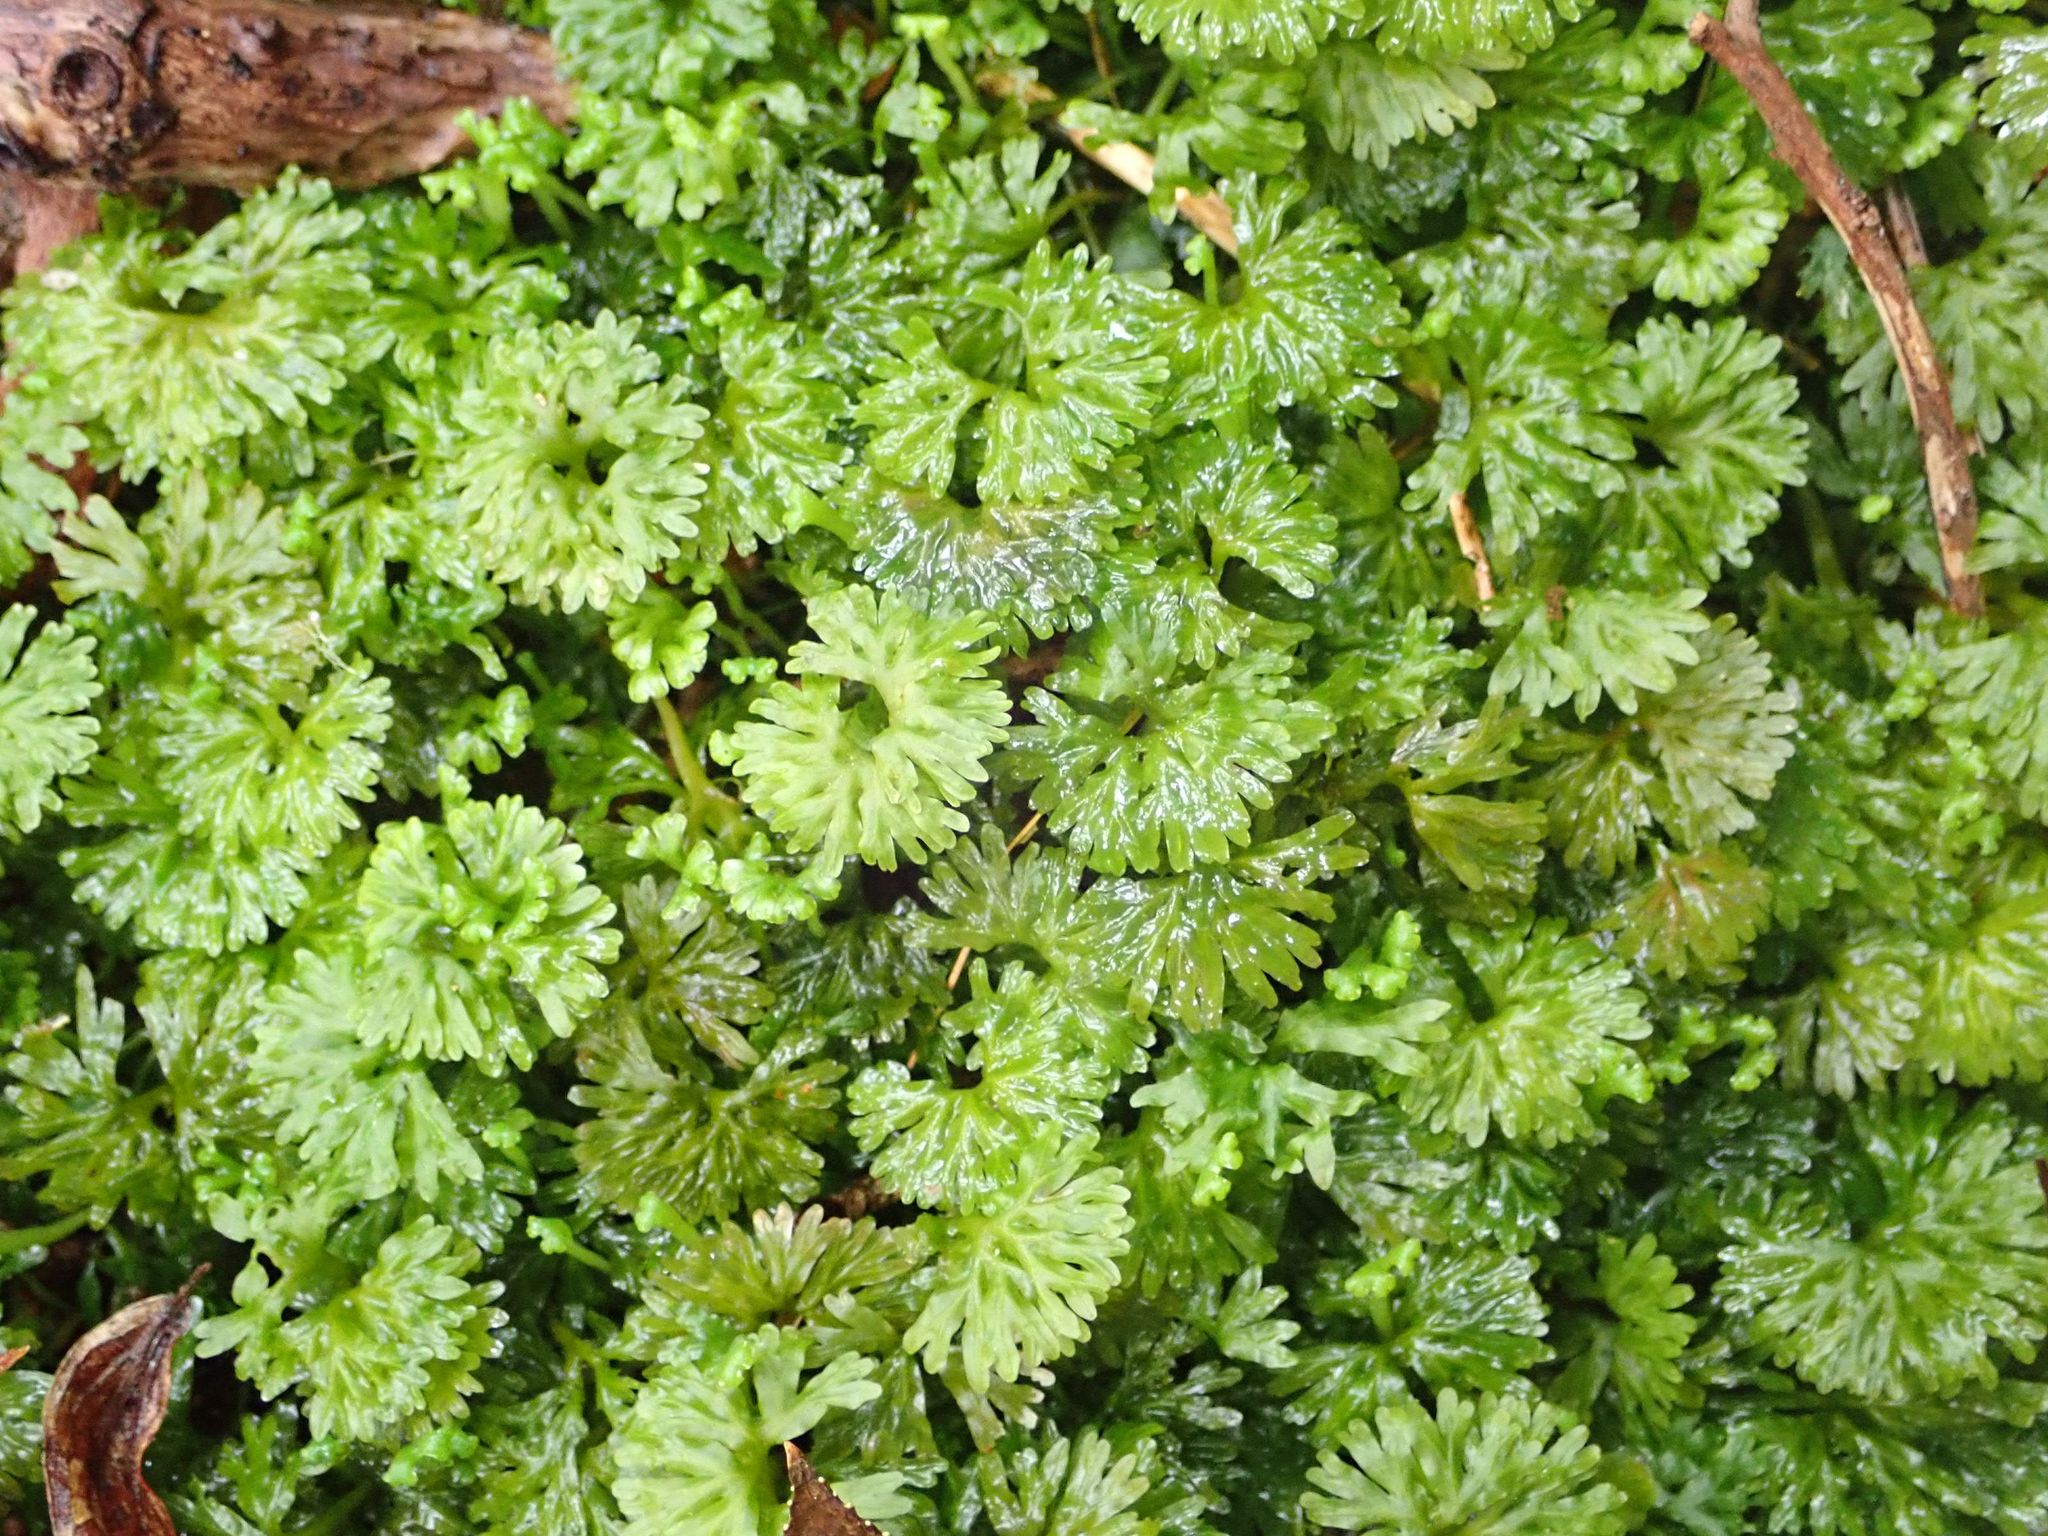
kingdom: Plantae
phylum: Marchantiophyta
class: Jungermanniopsida
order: Pallaviciniales
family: Hymenophytaceae
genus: Hymenophyton
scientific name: Hymenophyton flabellatum
